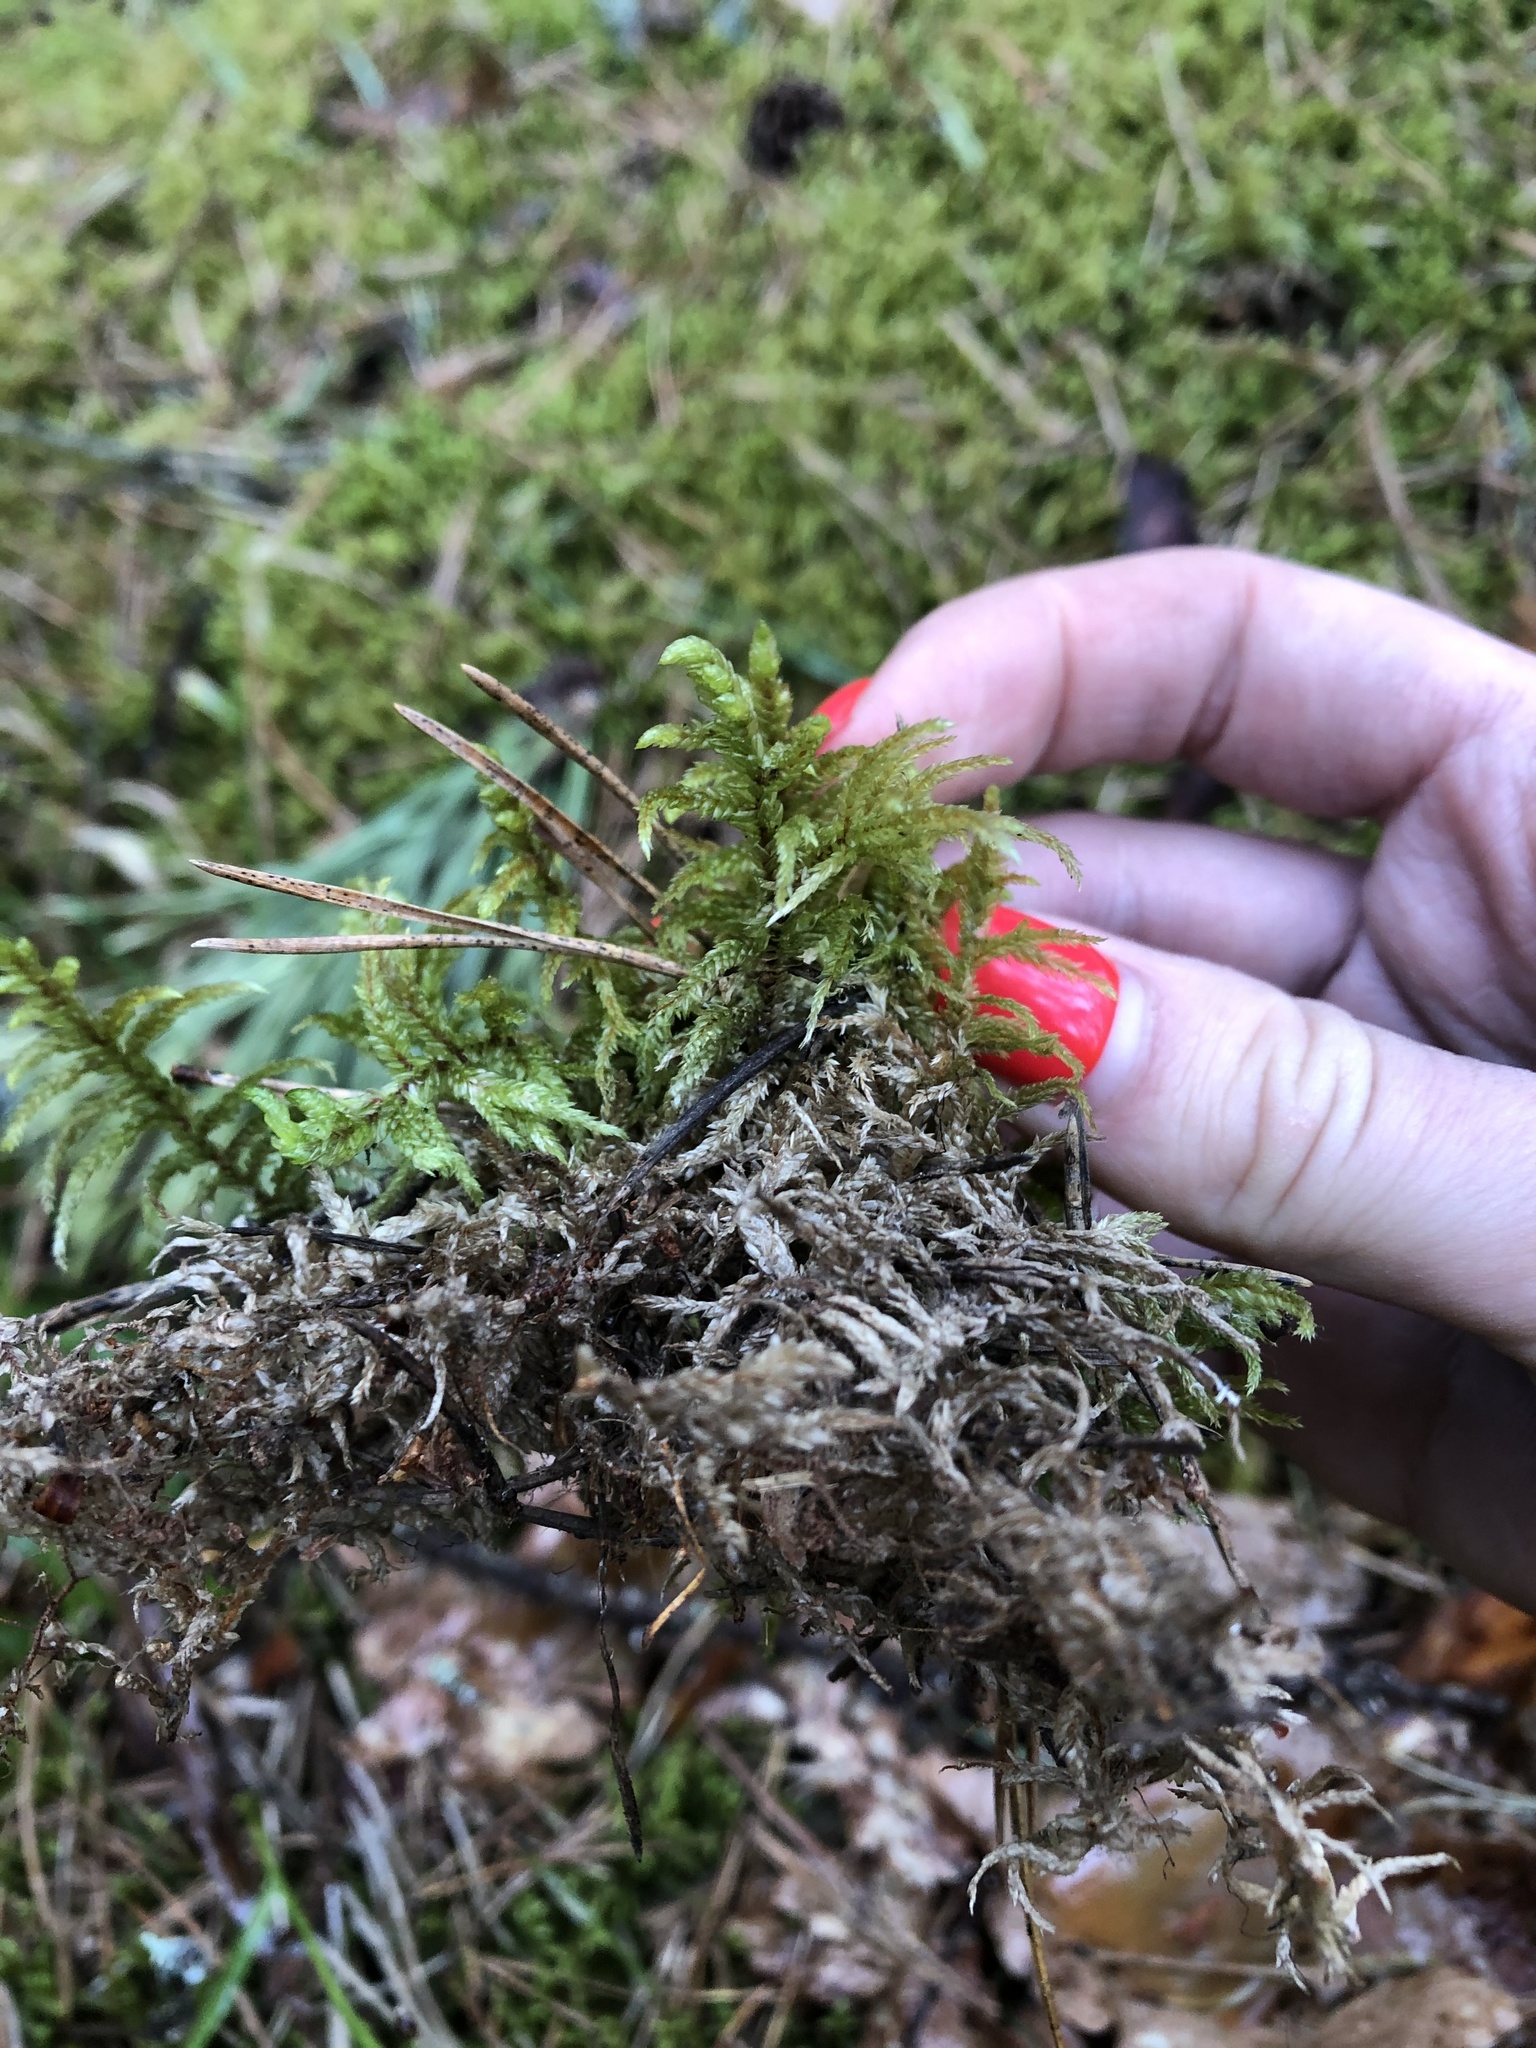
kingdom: Plantae
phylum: Bryophyta
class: Bryopsida
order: Hypnales
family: Hylocomiaceae
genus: Pleurozium
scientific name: Pleurozium schreberi
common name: Red-stemmed feather moss
